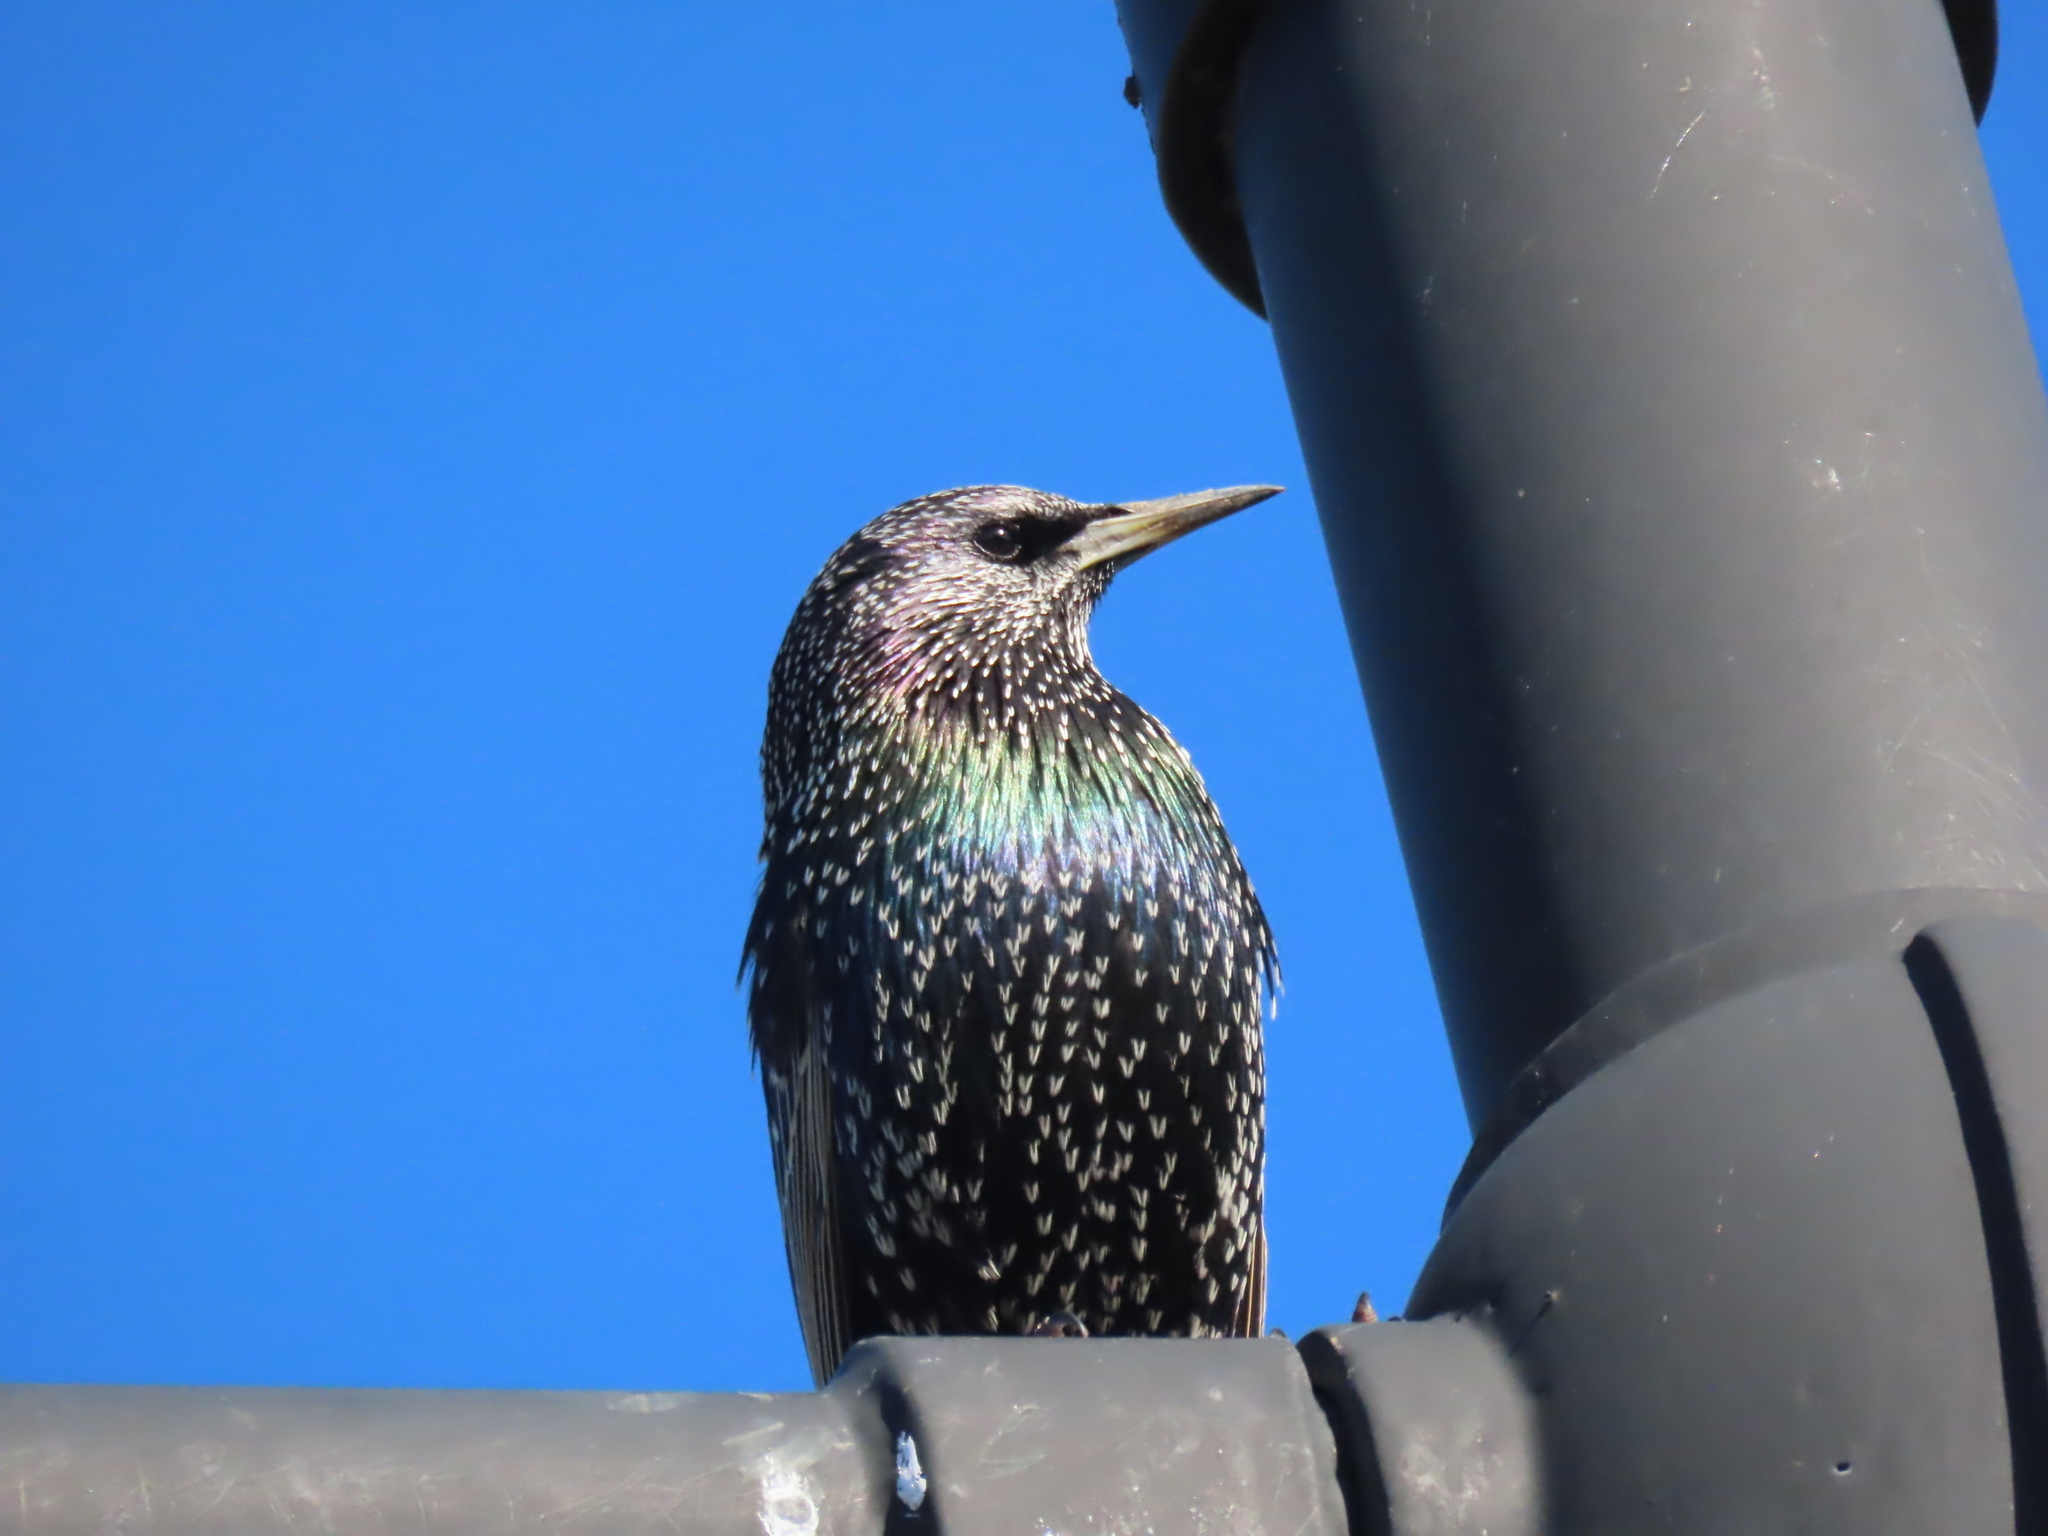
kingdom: Animalia
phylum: Chordata
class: Aves
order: Passeriformes
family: Sturnidae
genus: Sturnus
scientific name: Sturnus vulgaris
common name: Common starling
